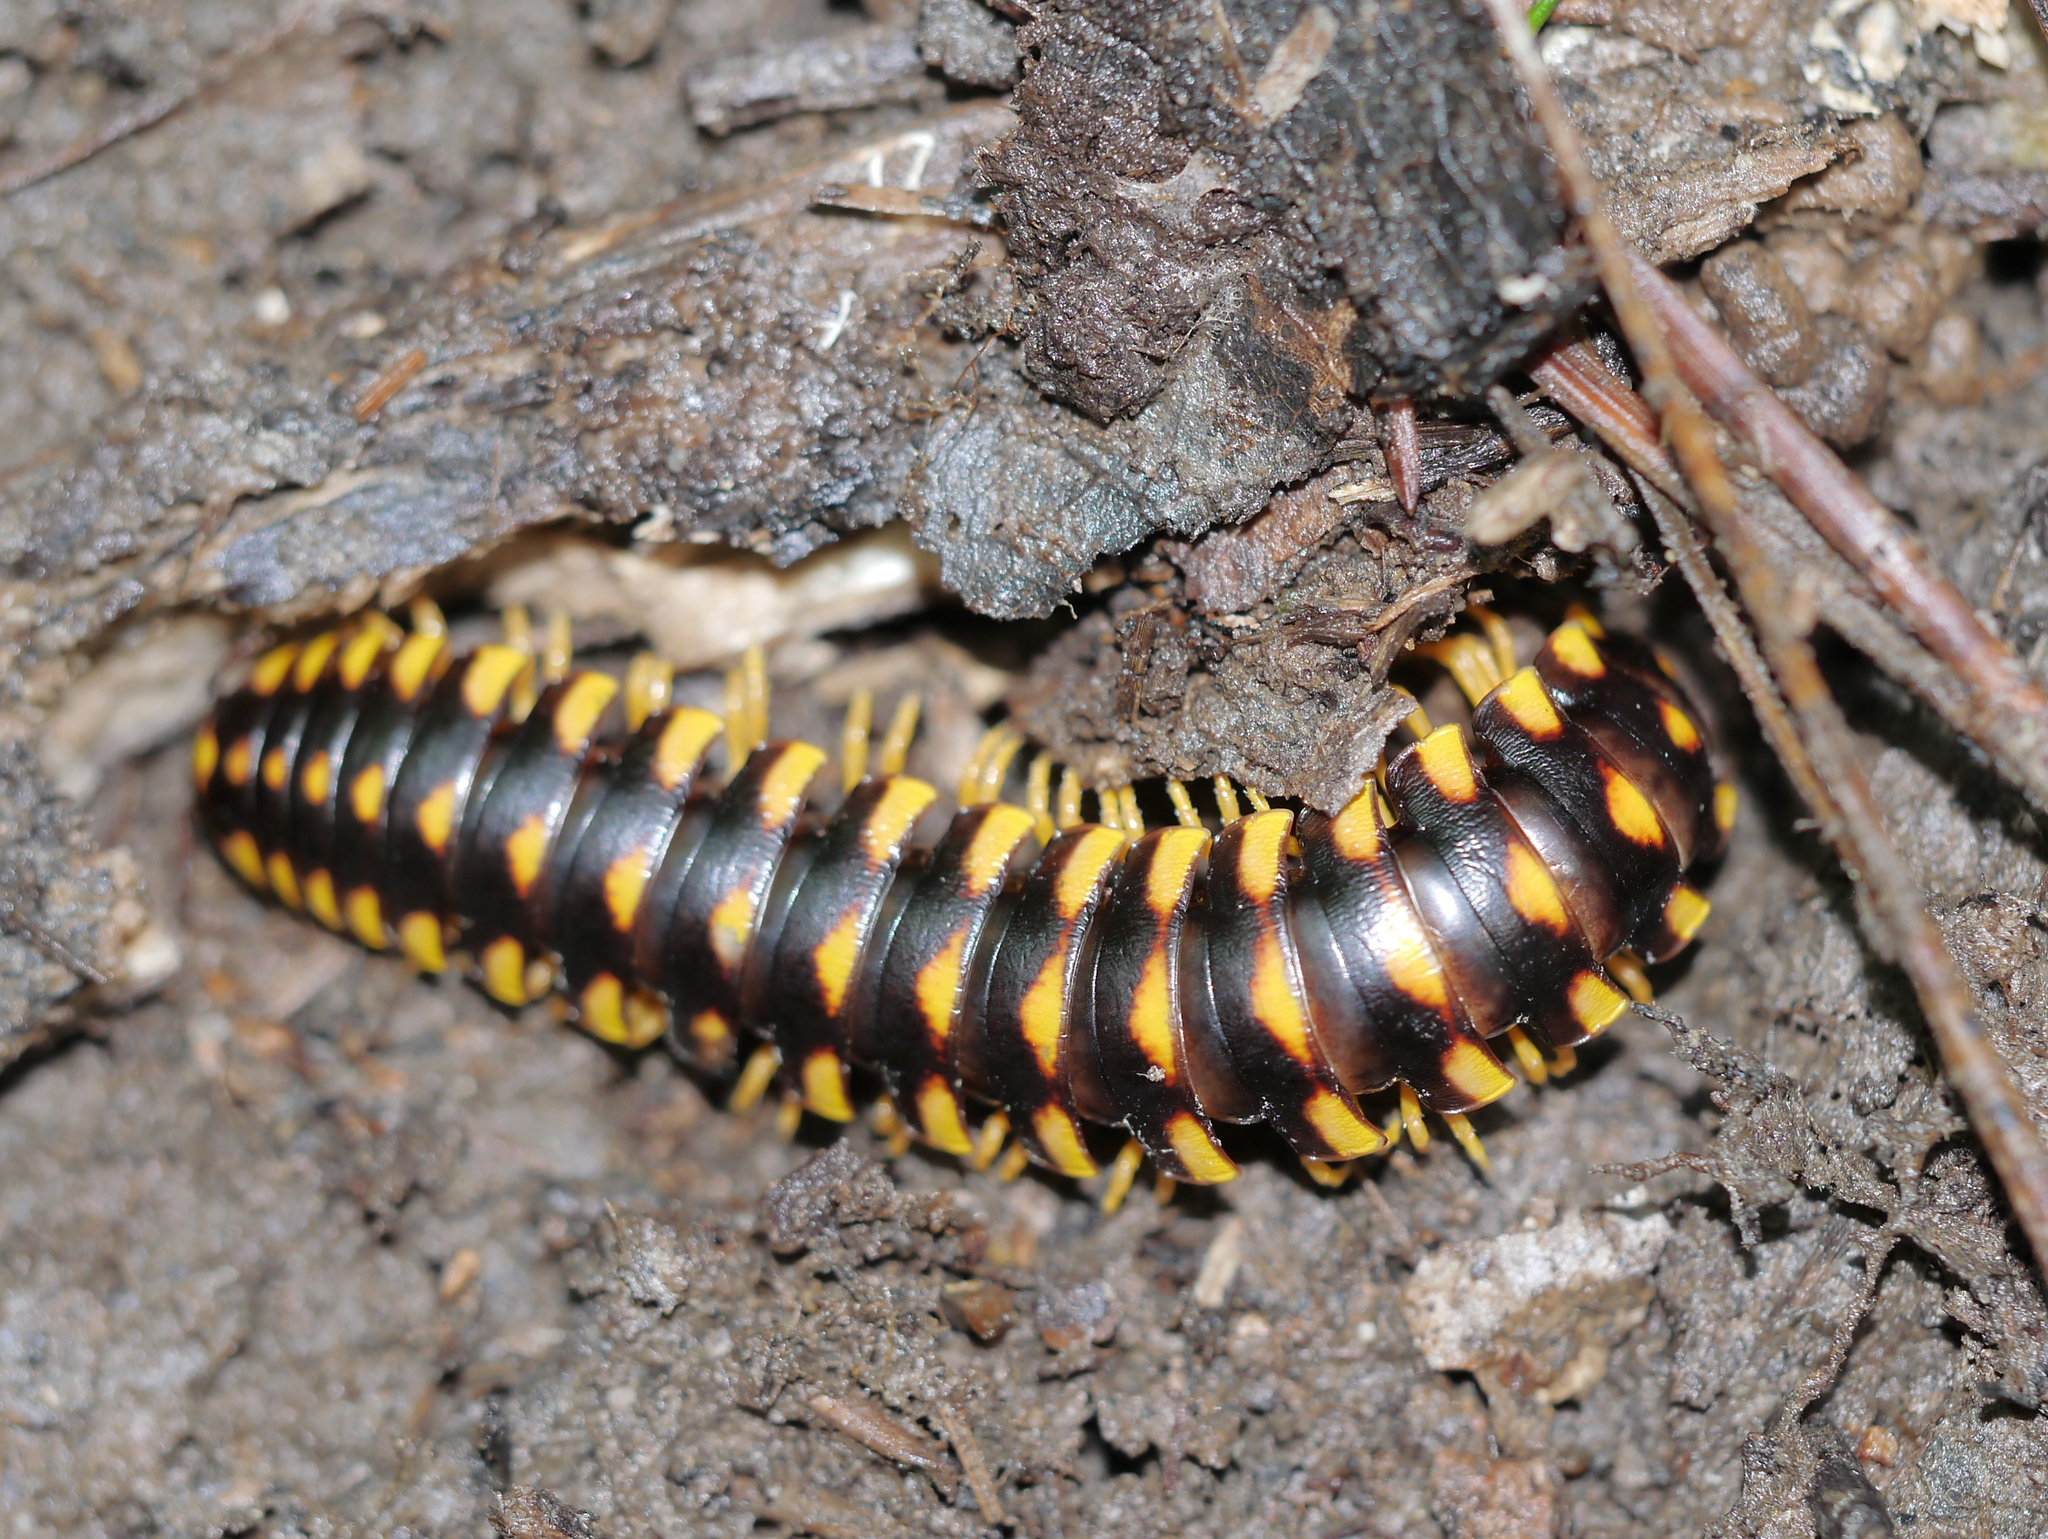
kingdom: Animalia
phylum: Arthropoda
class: Diplopoda
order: Polydesmida
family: Xystodesmidae
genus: Cherokia
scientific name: Cherokia georgiana
